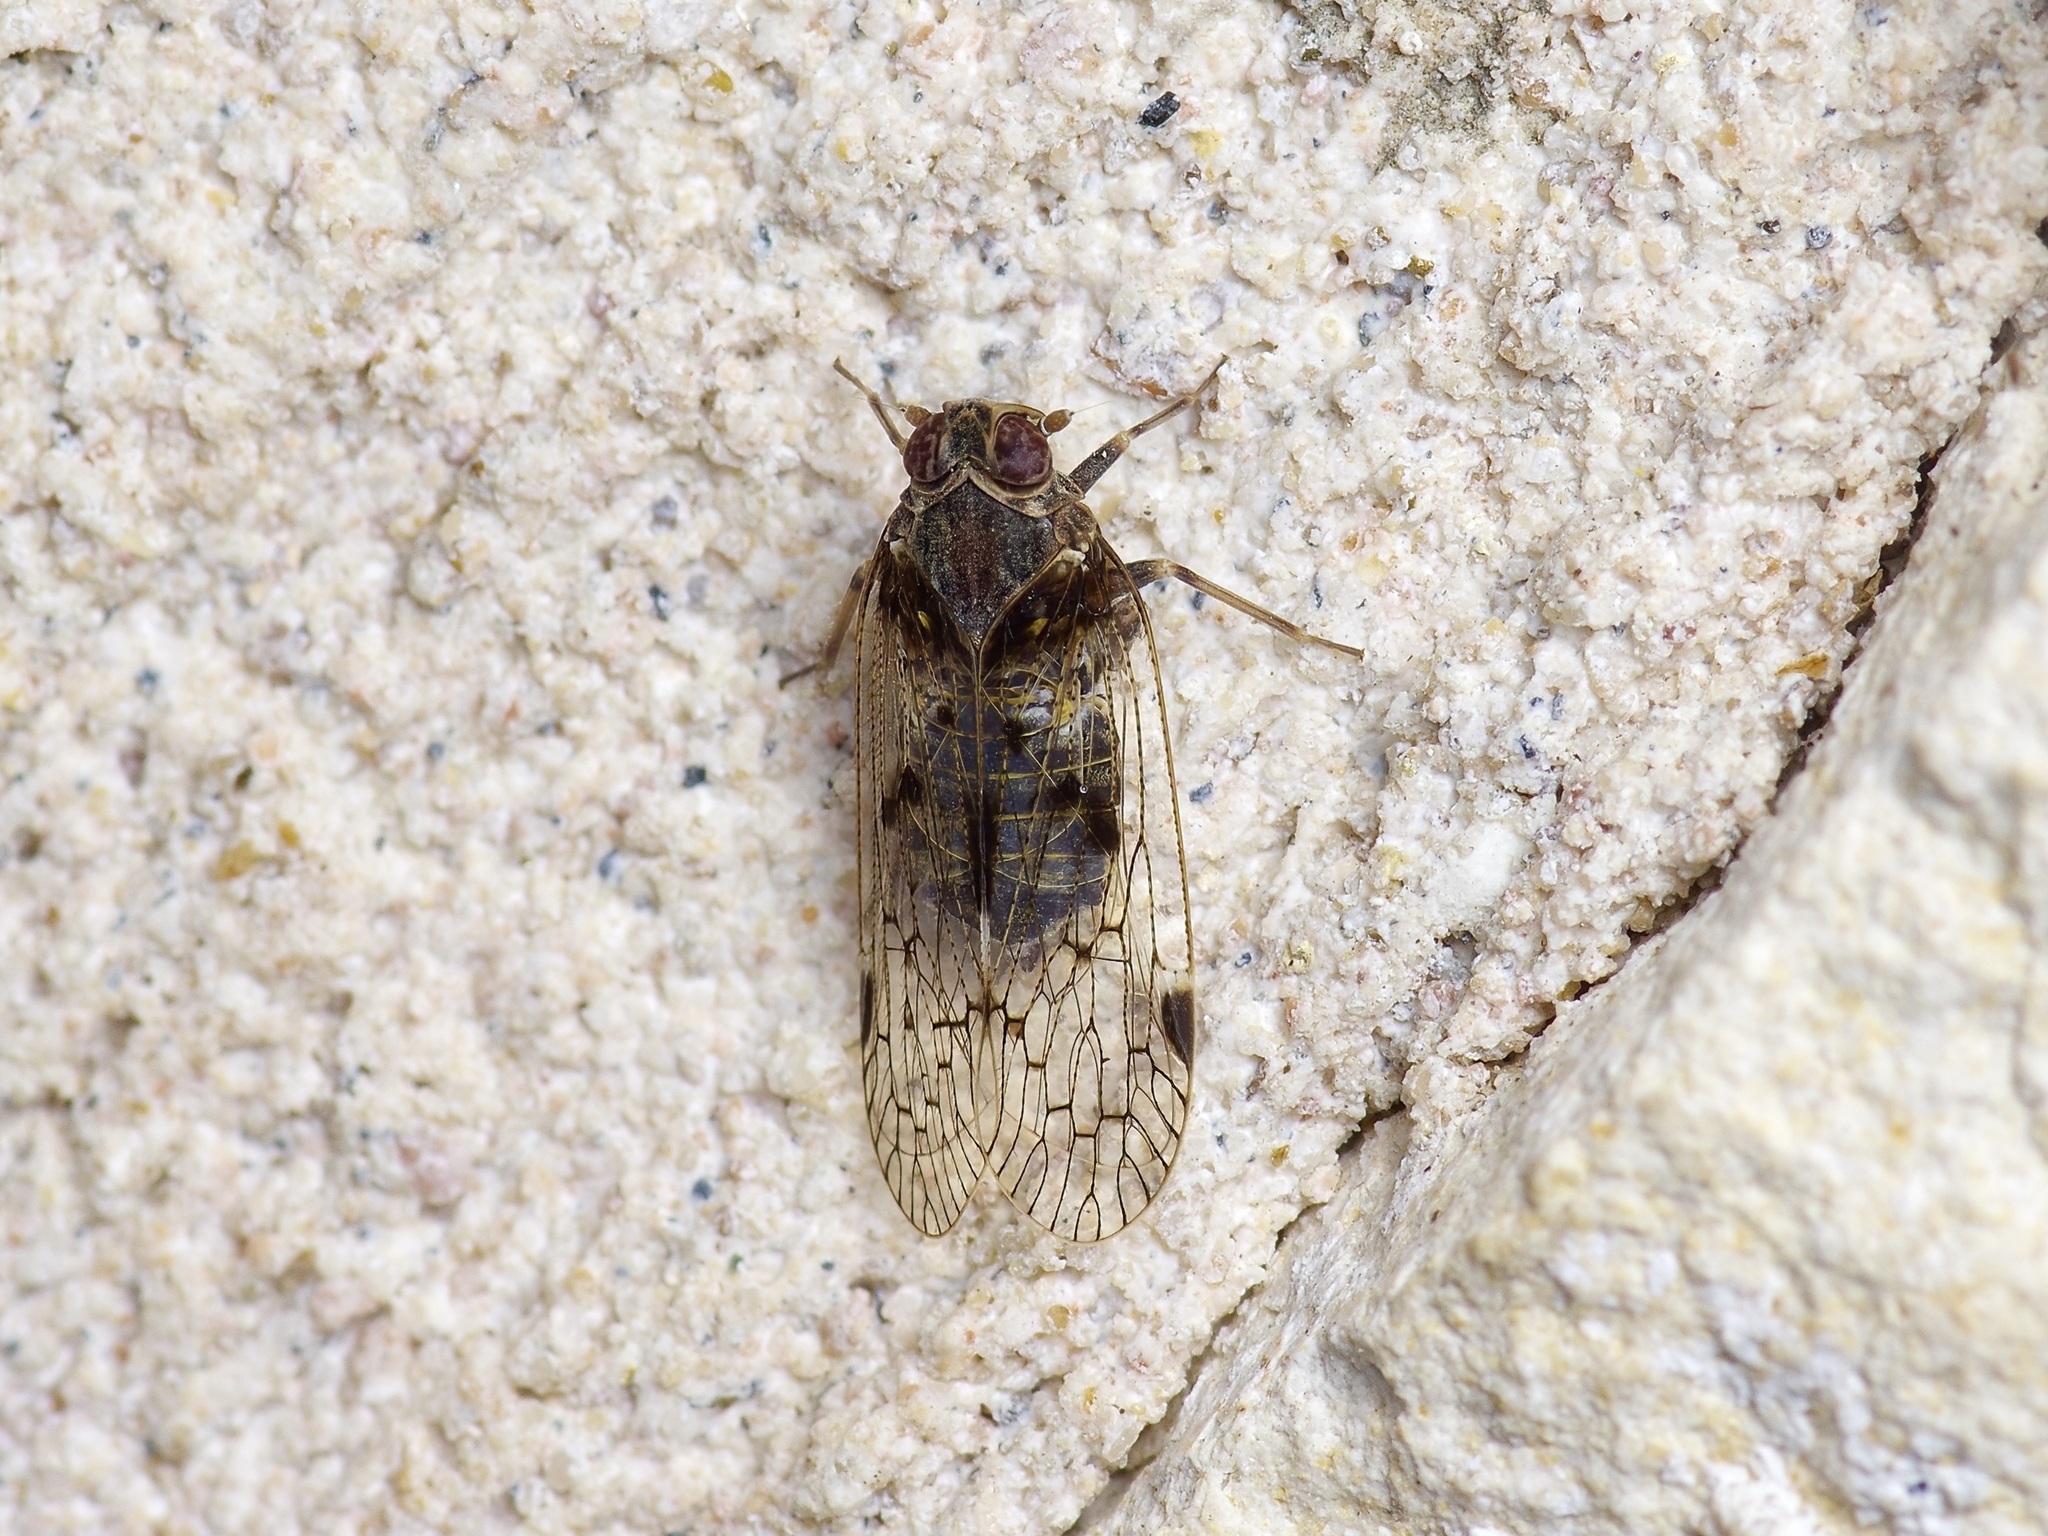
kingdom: Animalia
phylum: Arthropoda
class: Insecta
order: Hemiptera
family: Cixiidae
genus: Melanoliarus
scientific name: Melanoliarus aridus
